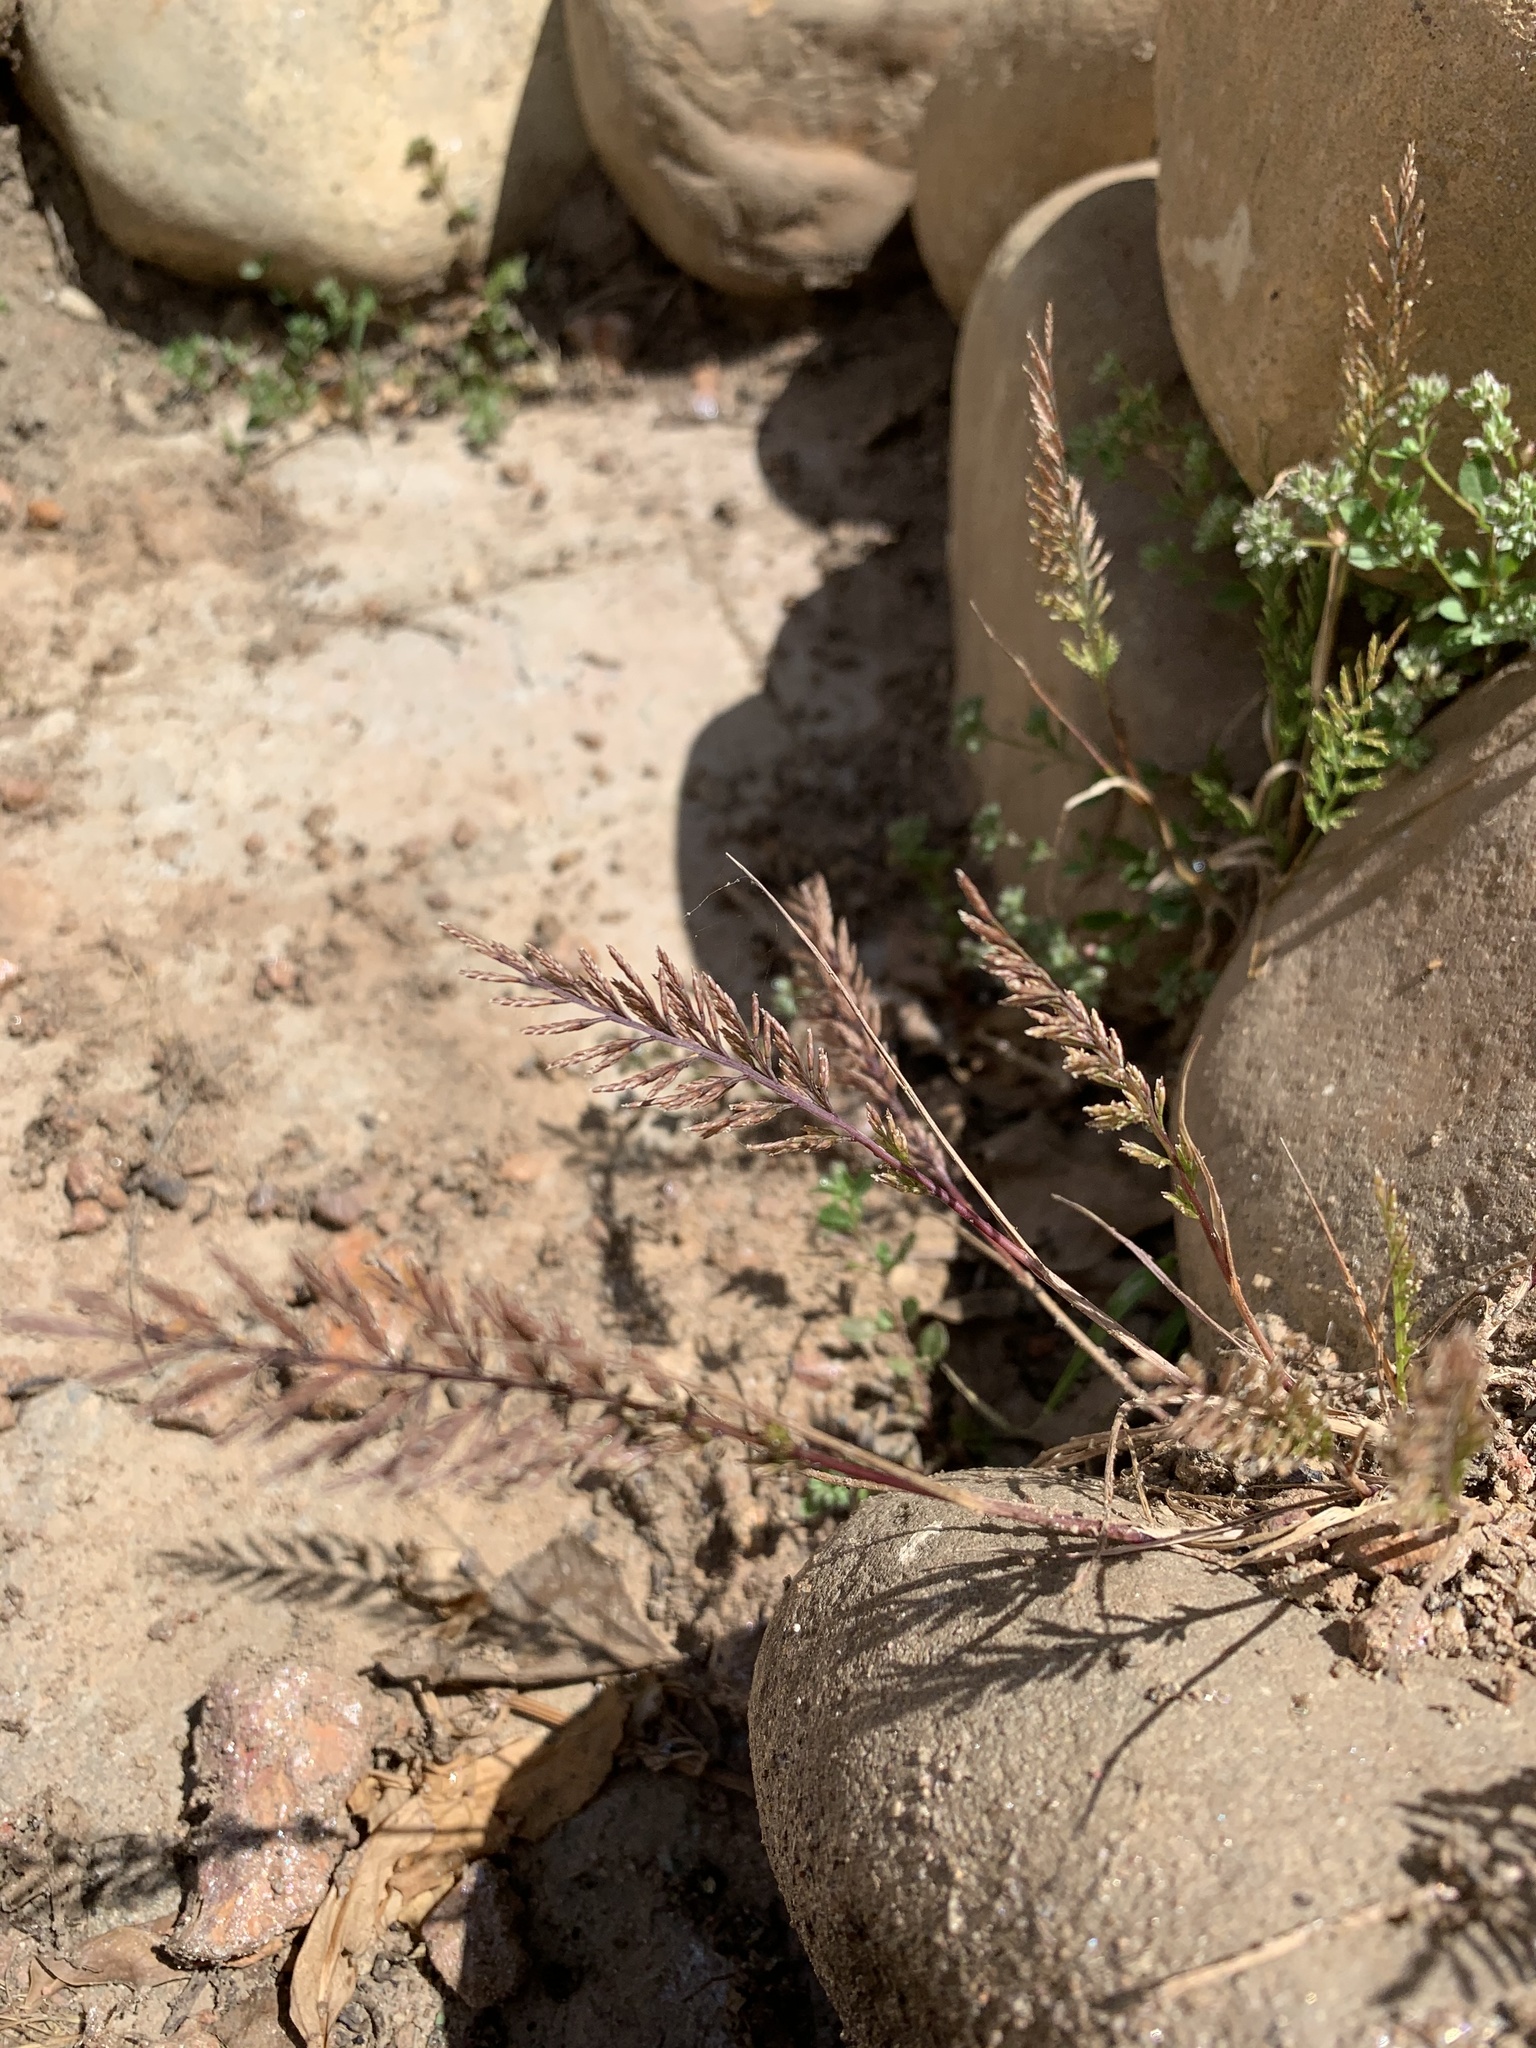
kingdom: Plantae
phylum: Tracheophyta
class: Liliopsida
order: Poales
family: Poaceae
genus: Catapodium
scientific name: Catapodium rigidum
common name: Fern-grass
